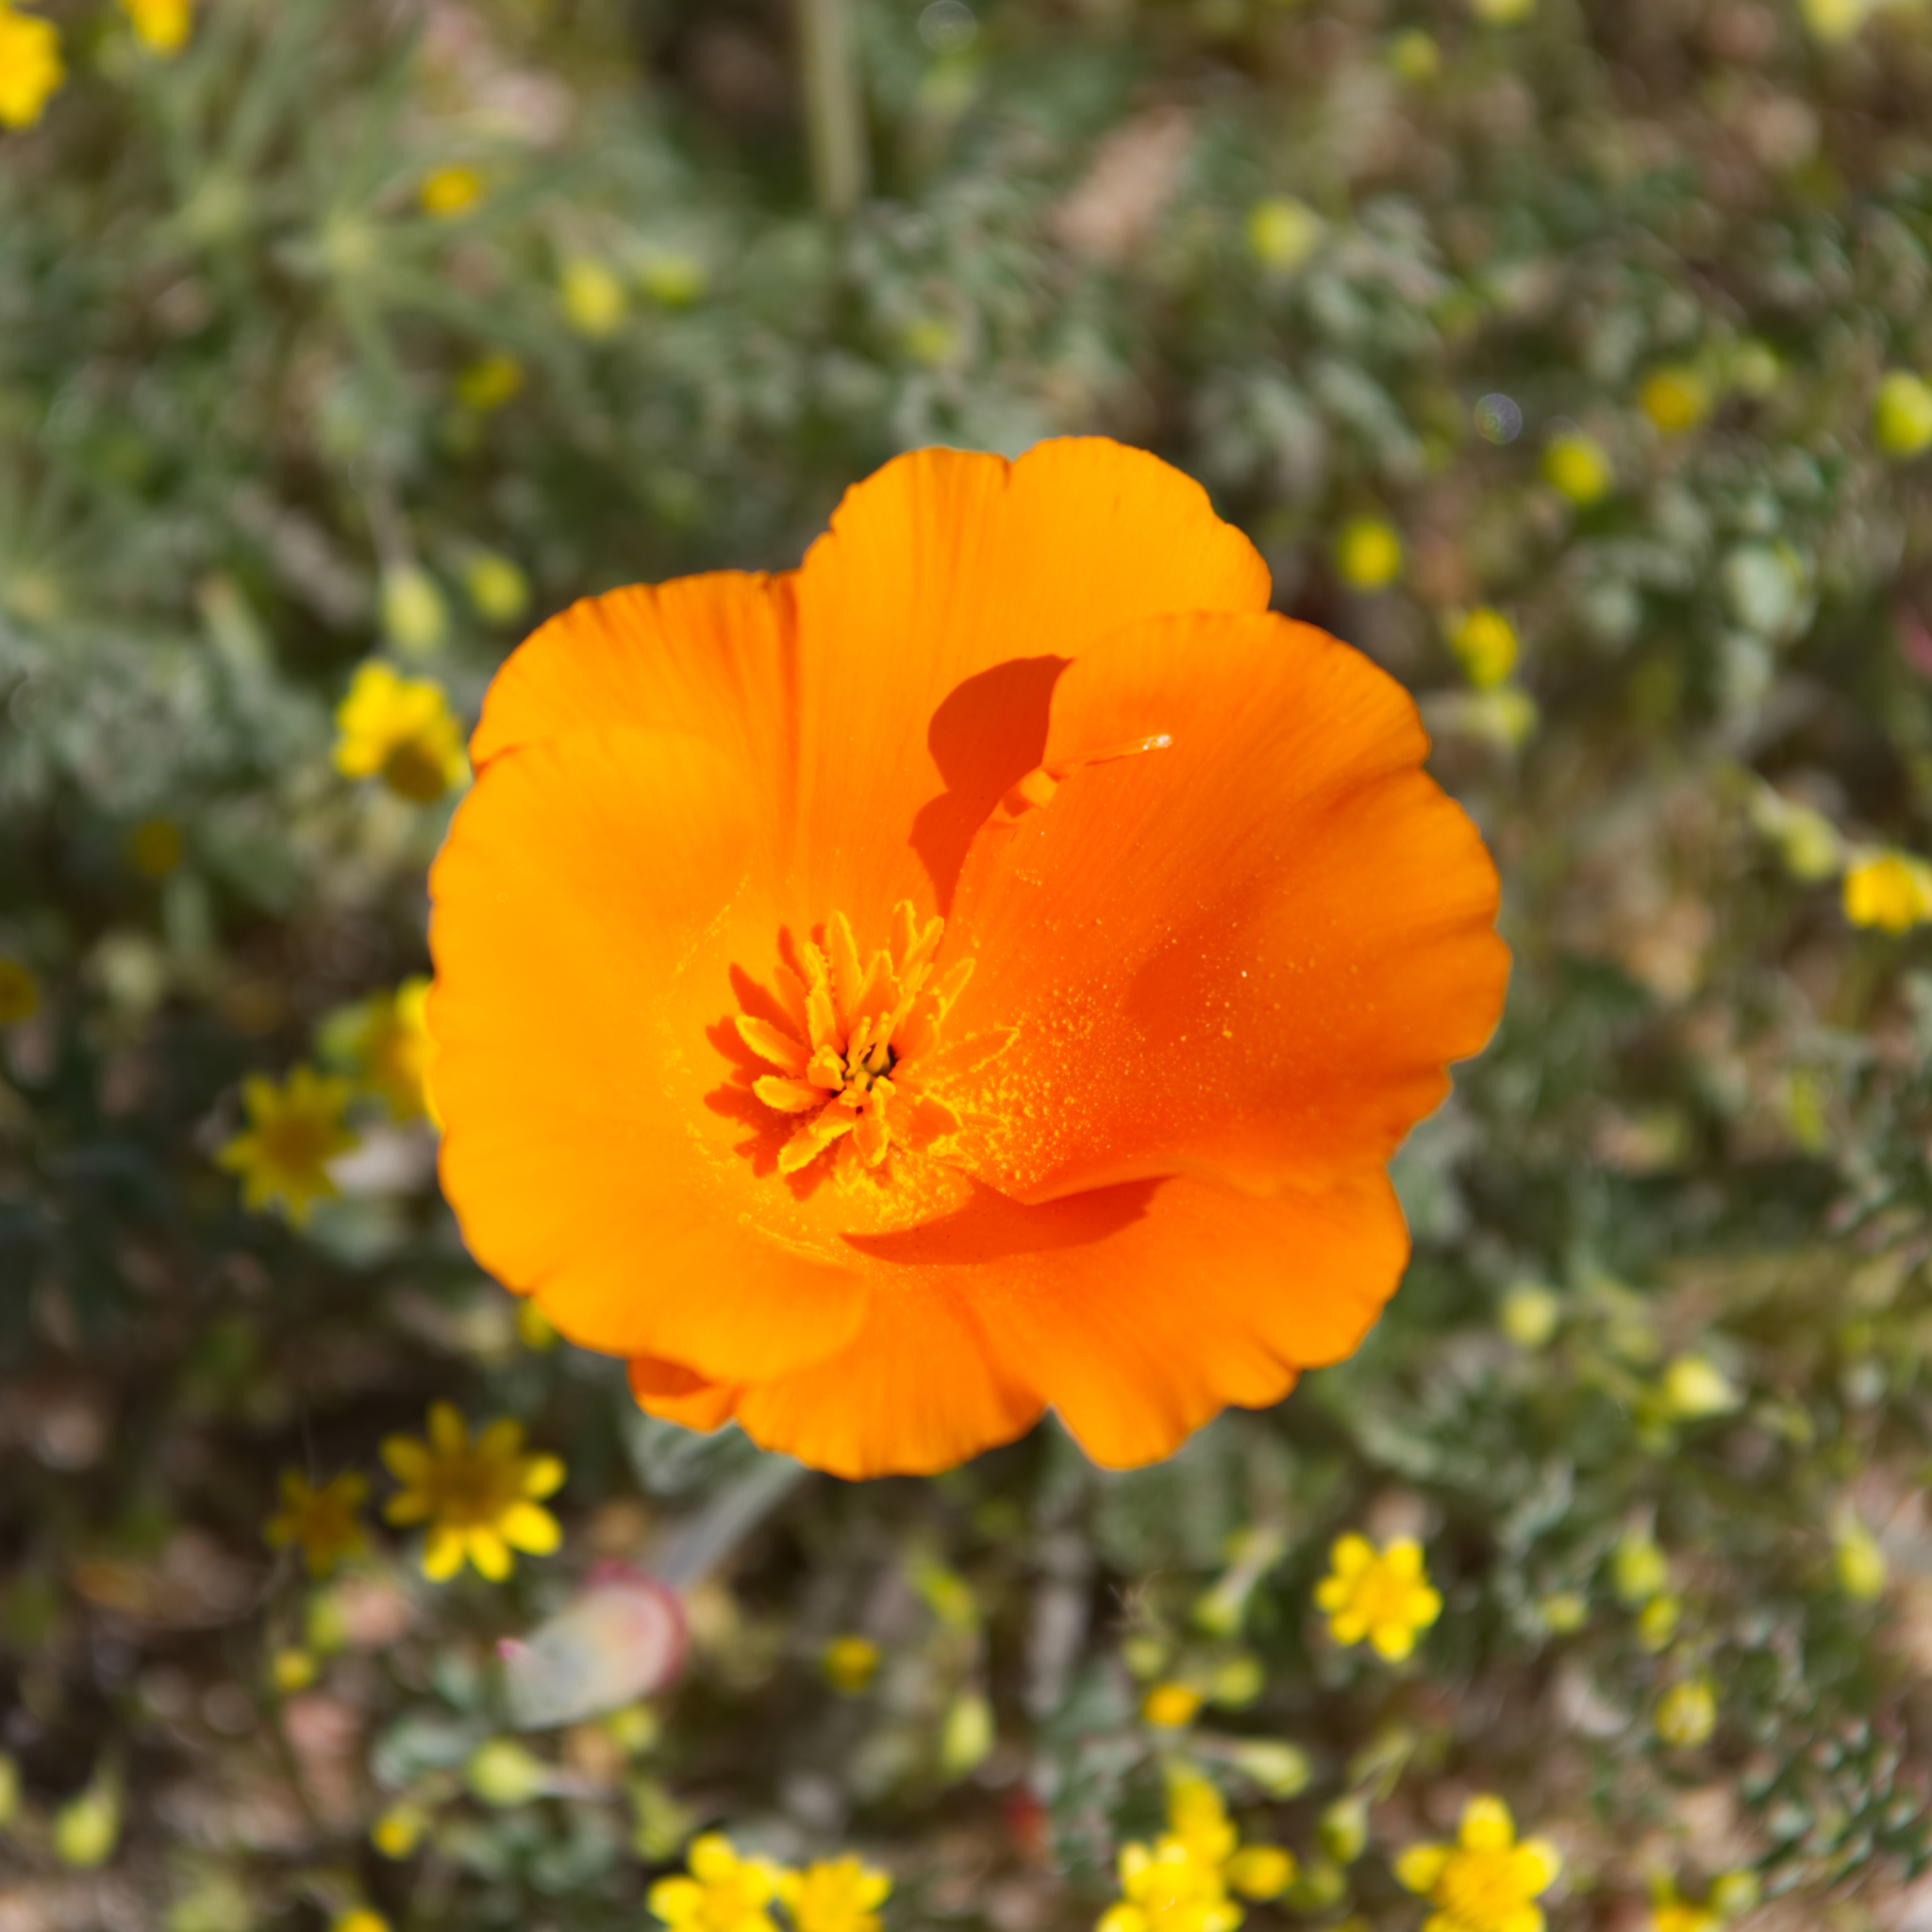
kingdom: Plantae
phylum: Tracheophyta
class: Magnoliopsida
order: Ranunculales
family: Papaveraceae
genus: Eschscholzia
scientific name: Eschscholzia californica
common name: California poppy
